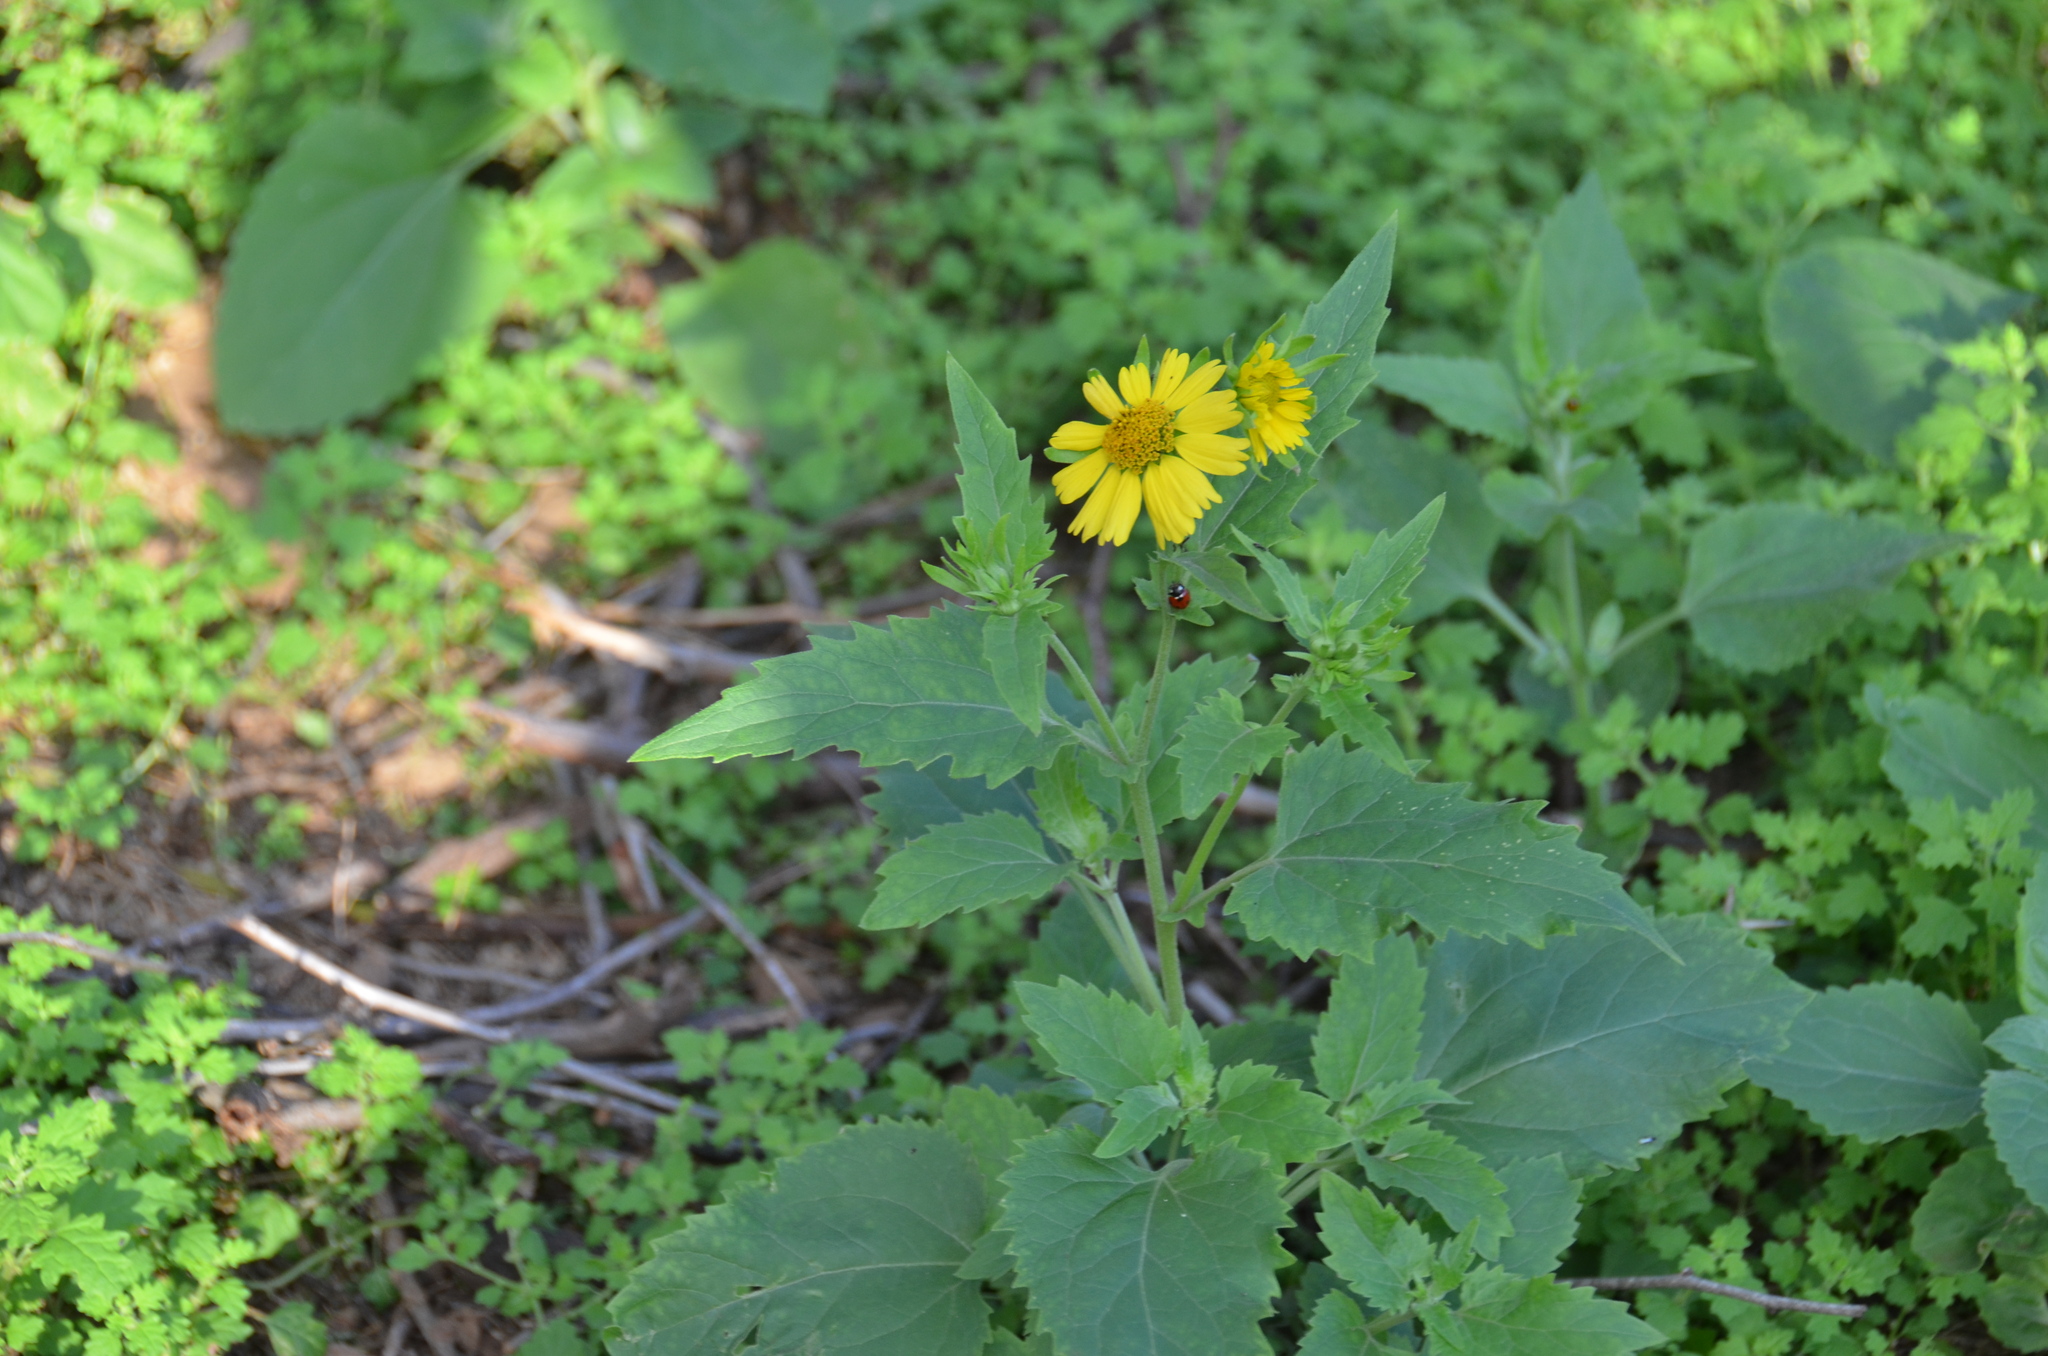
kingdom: Animalia
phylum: Arthropoda
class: Insecta
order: Coleoptera
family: Coccinellidae
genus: Coccinella
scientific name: Coccinella septempunctata
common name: Sevenspotted lady beetle
